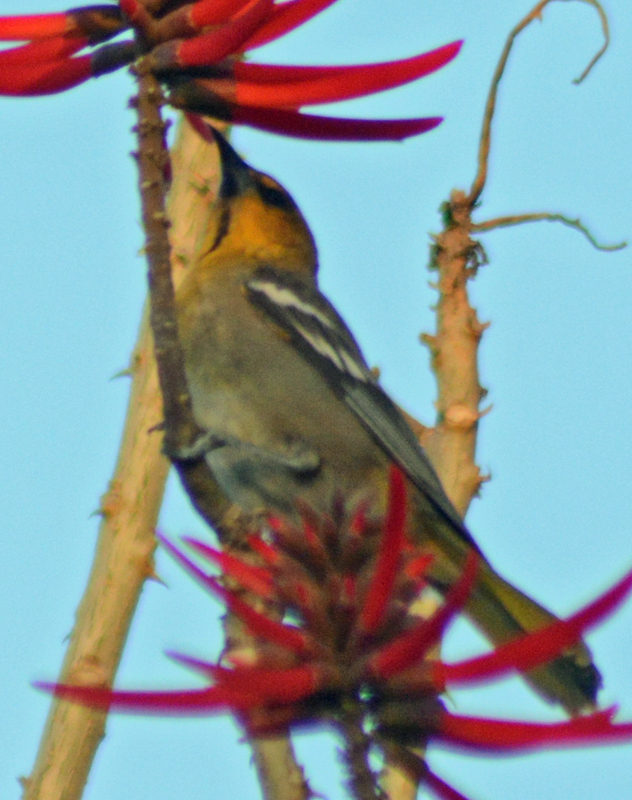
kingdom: Animalia
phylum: Chordata
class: Aves
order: Passeriformes
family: Icteridae
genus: Icterus
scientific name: Icterus abeillei
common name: Black-backed oriole
